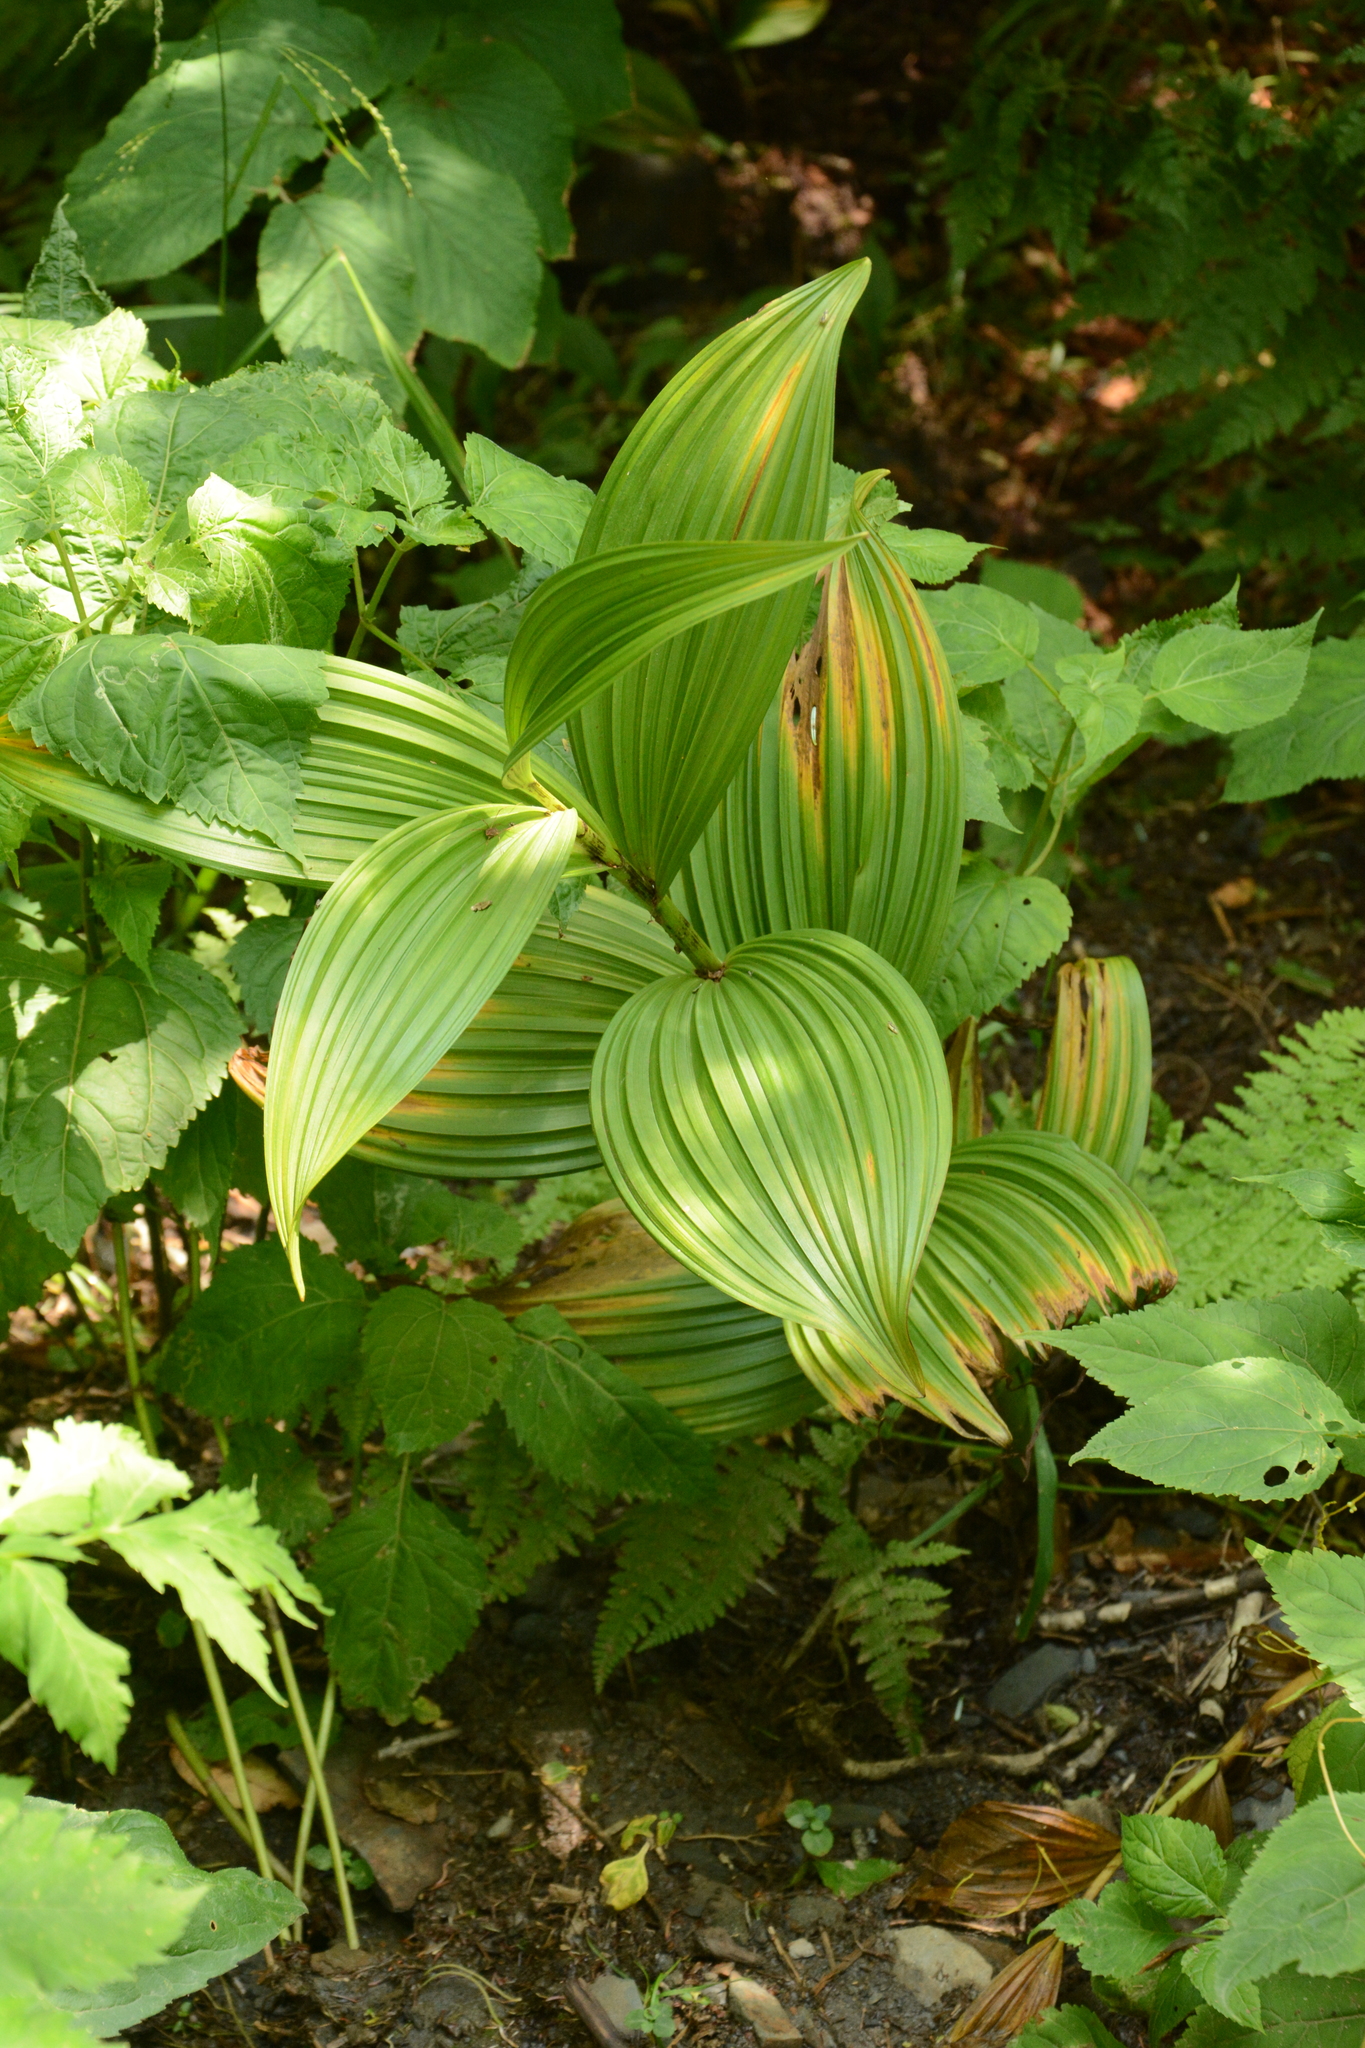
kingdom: Plantae
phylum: Tracheophyta
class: Liliopsida
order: Liliales
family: Melanthiaceae
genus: Veratrum
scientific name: Veratrum viride
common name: American false hellebore
